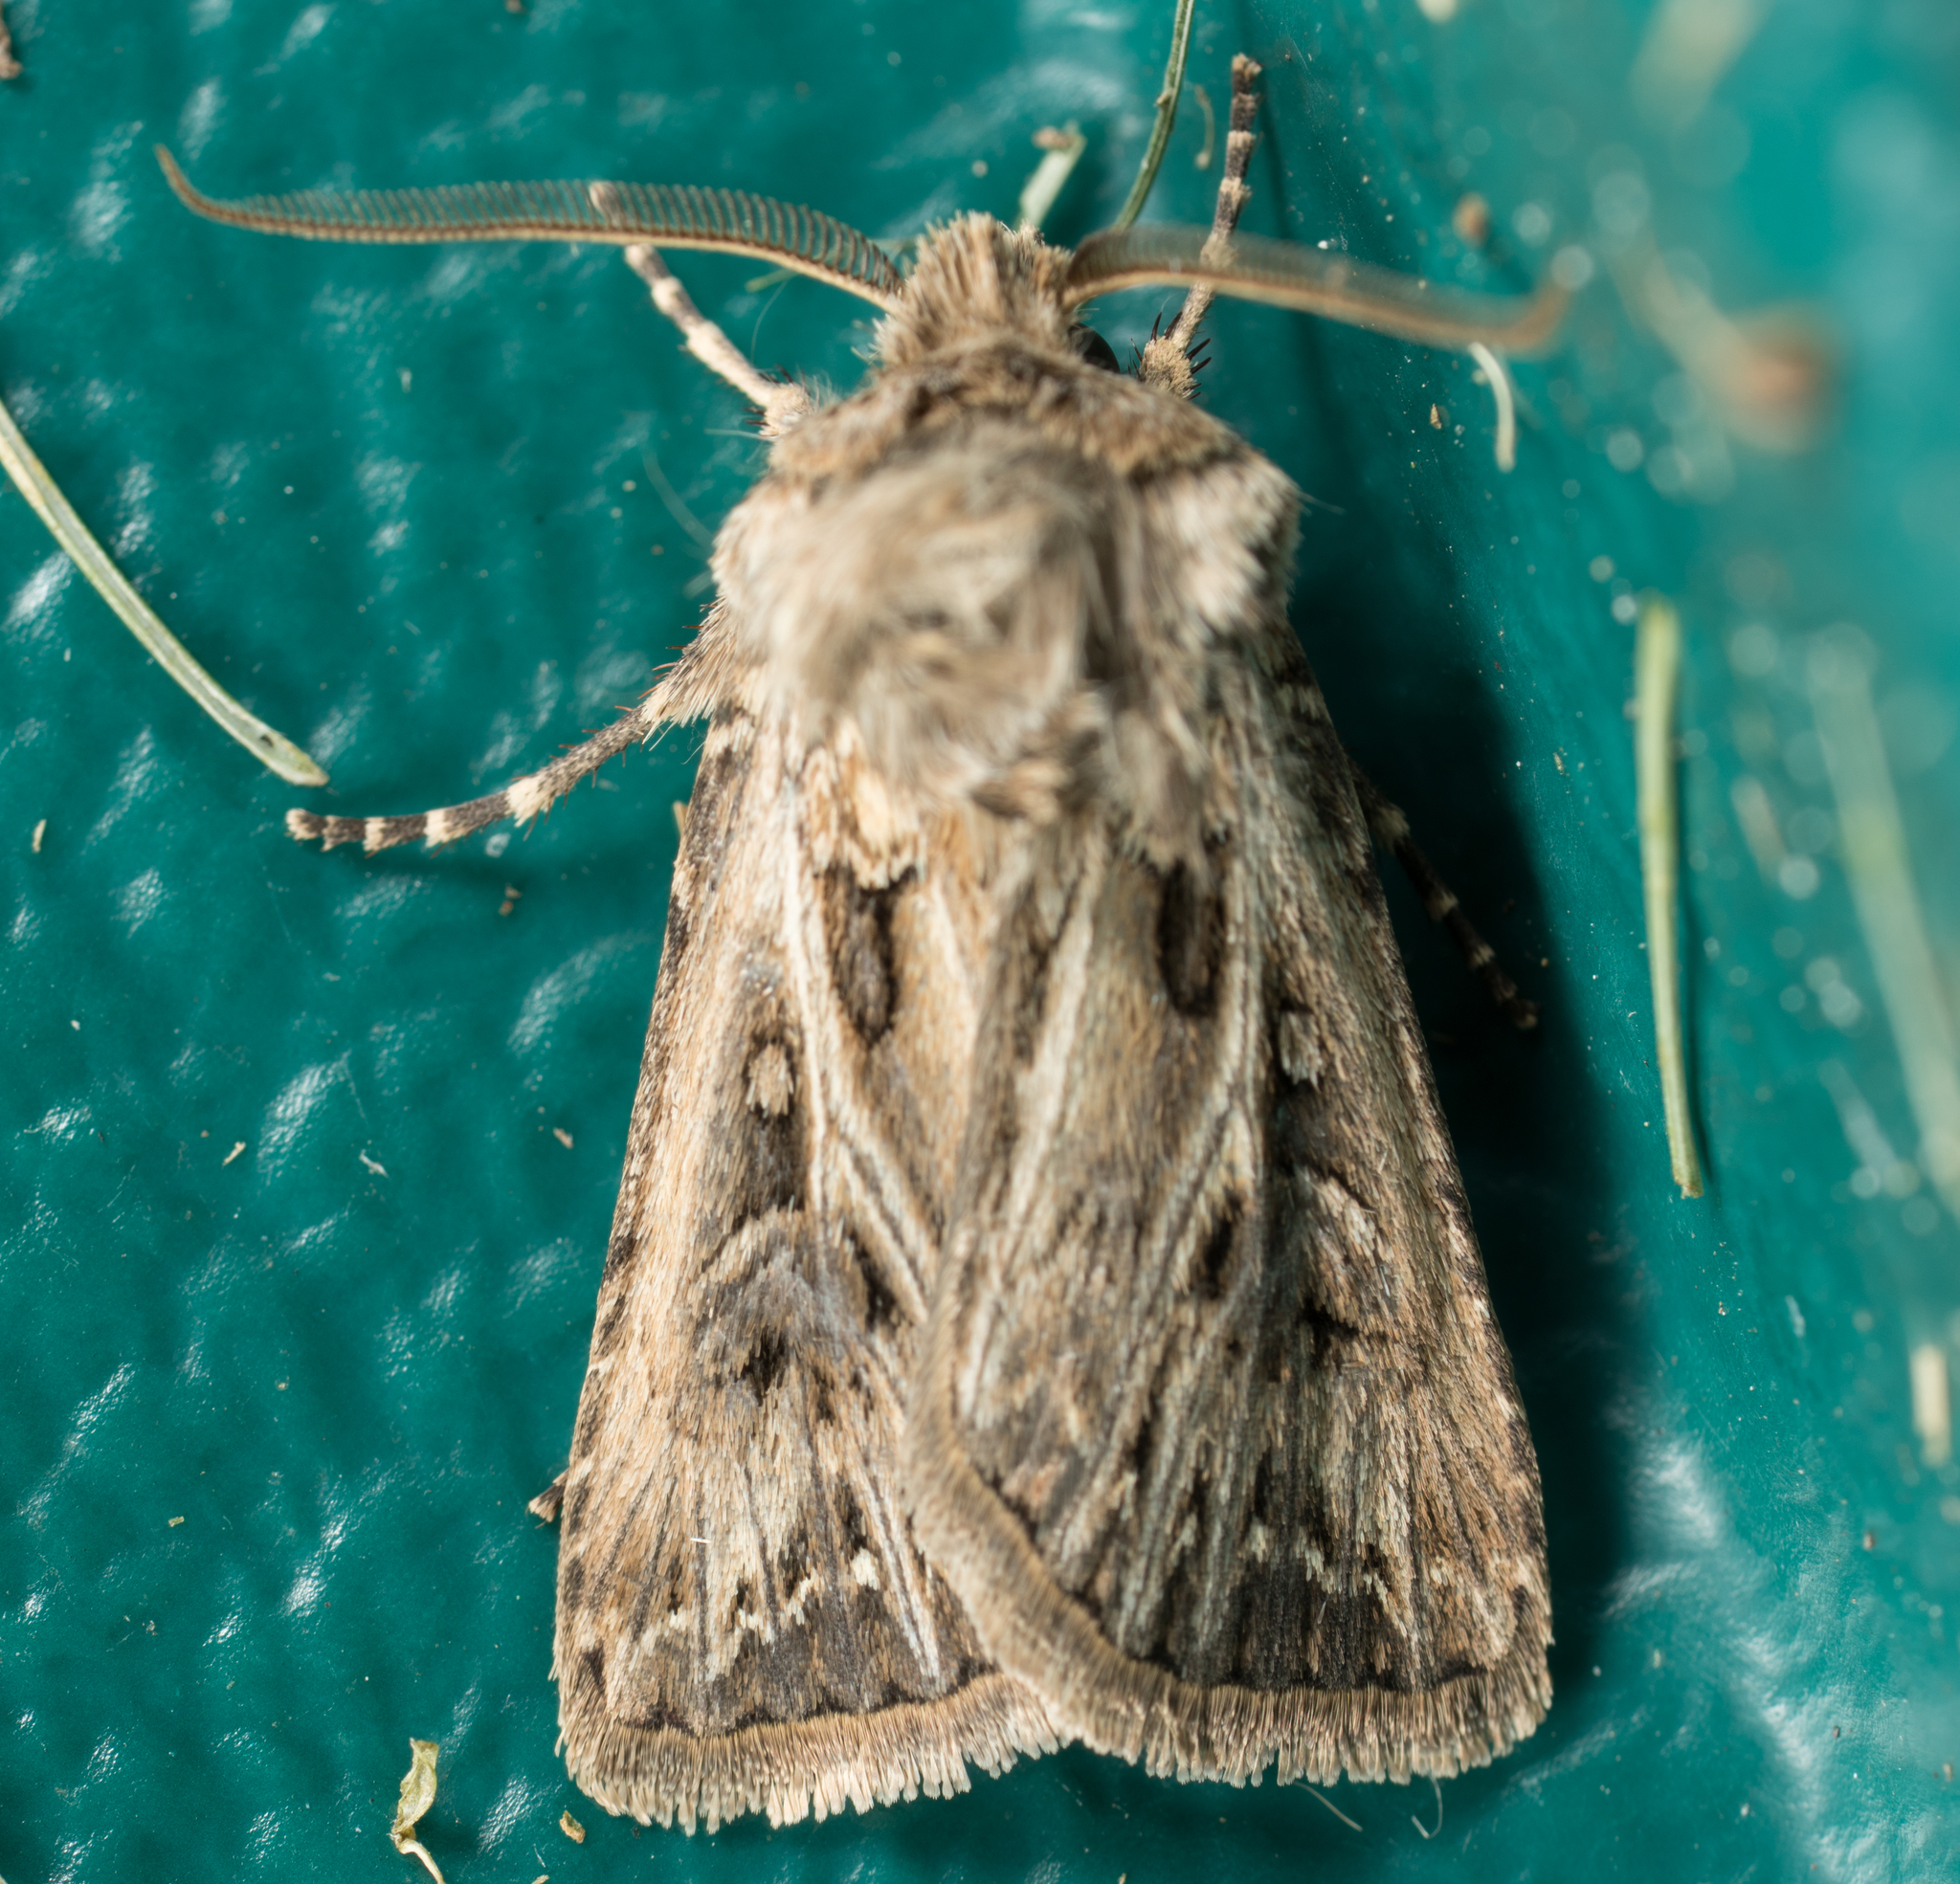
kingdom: Animalia
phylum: Arthropoda
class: Insecta
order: Lepidoptera
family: Noctuidae
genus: Agrotis
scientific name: Agrotis gladiaria
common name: Claybacked cutworm
